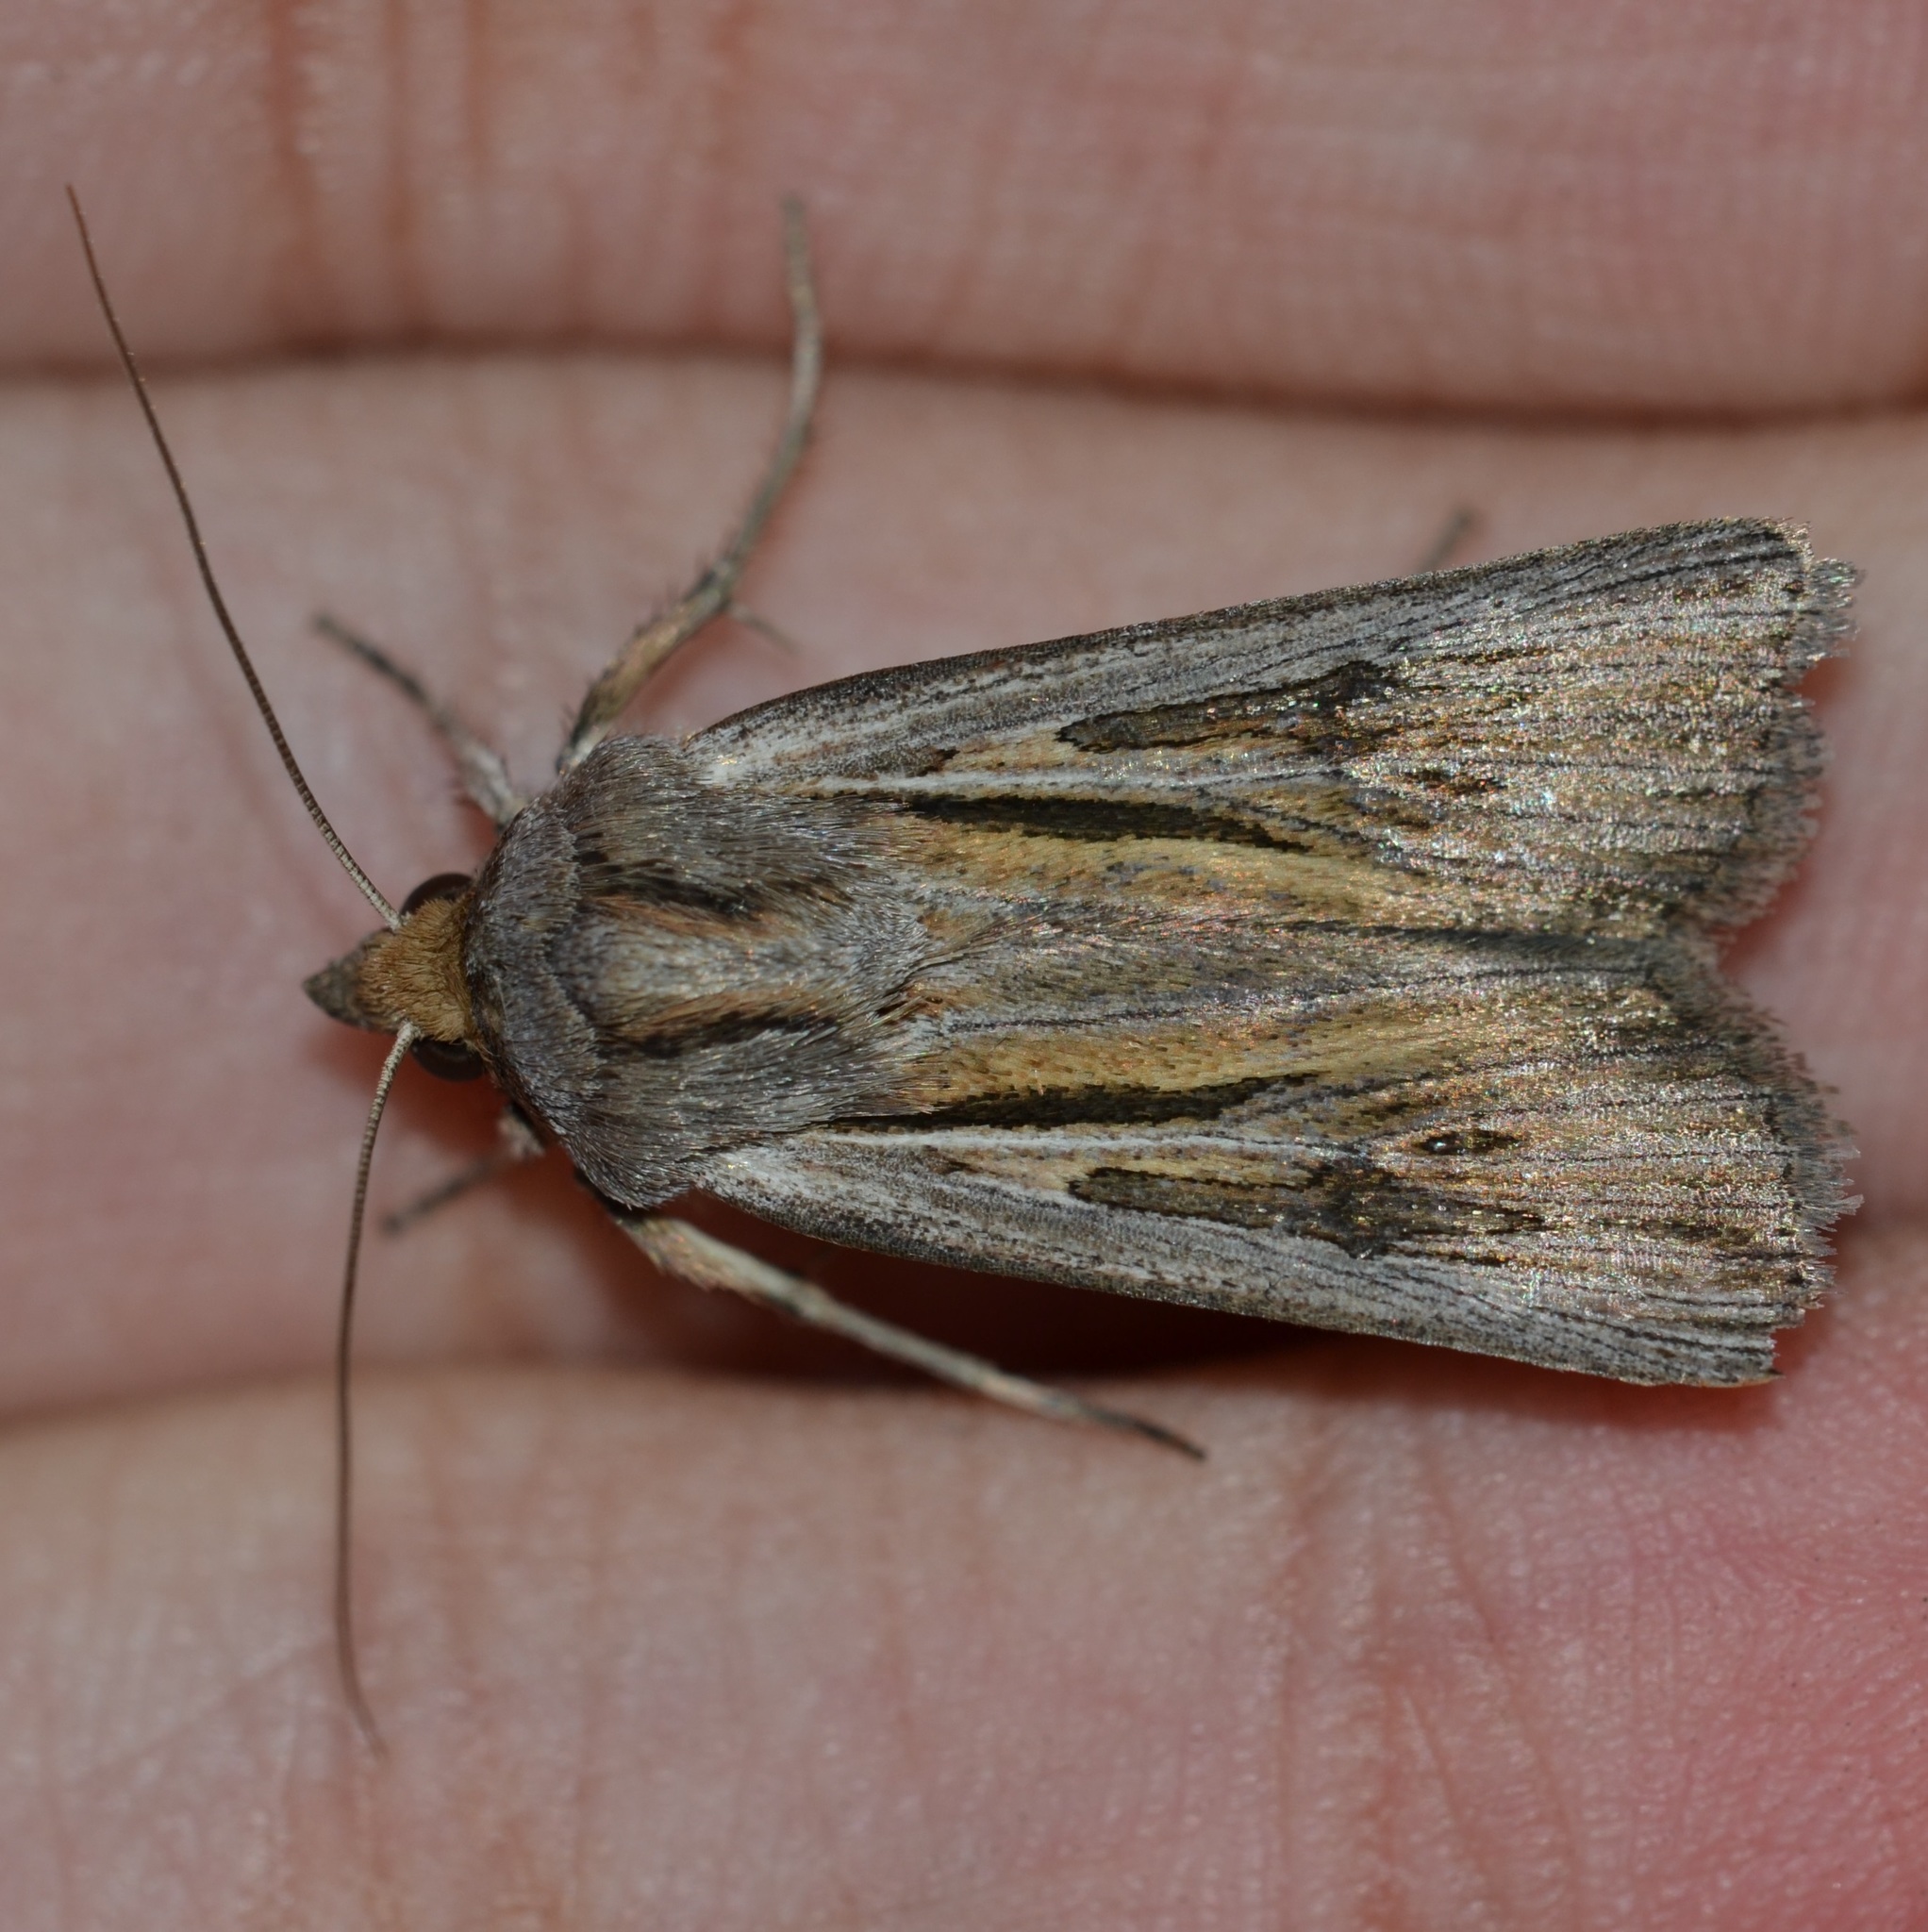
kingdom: Animalia
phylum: Arthropoda
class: Insecta
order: Lepidoptera
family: Noctuidae
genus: Agrotis
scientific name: Agrotis dislocata
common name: The lesser native cutworm
